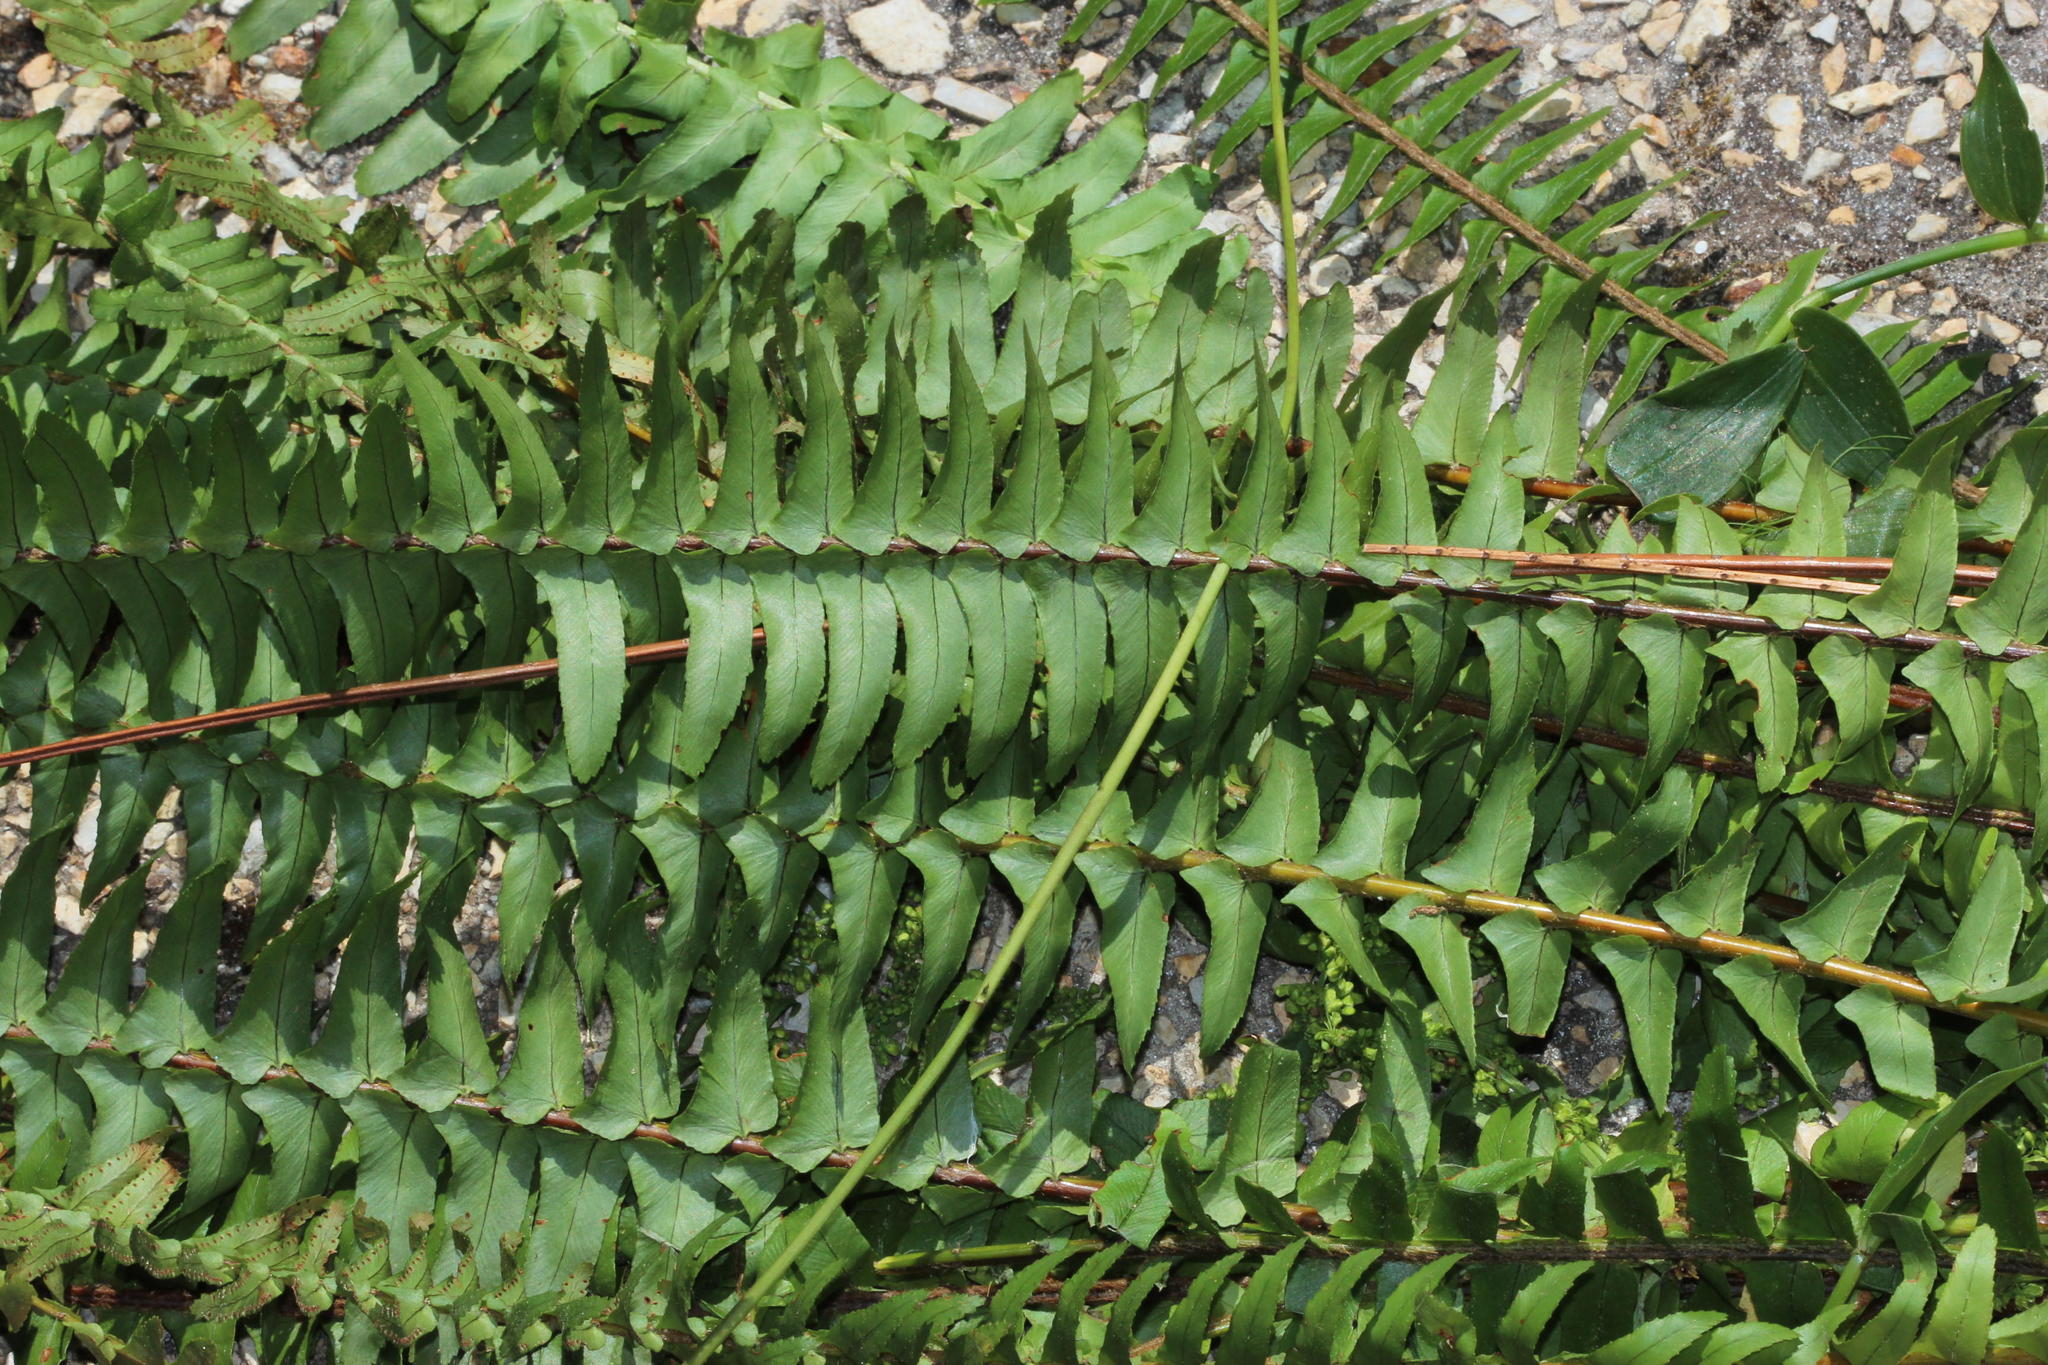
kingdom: Plantae
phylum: Tracheophyta
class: Polypodiopsida
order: Polypodiales
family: Nephrolepidaceae
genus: Nephrolepis
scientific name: Nephrolepis cordifolia
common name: Narrow swordfern
